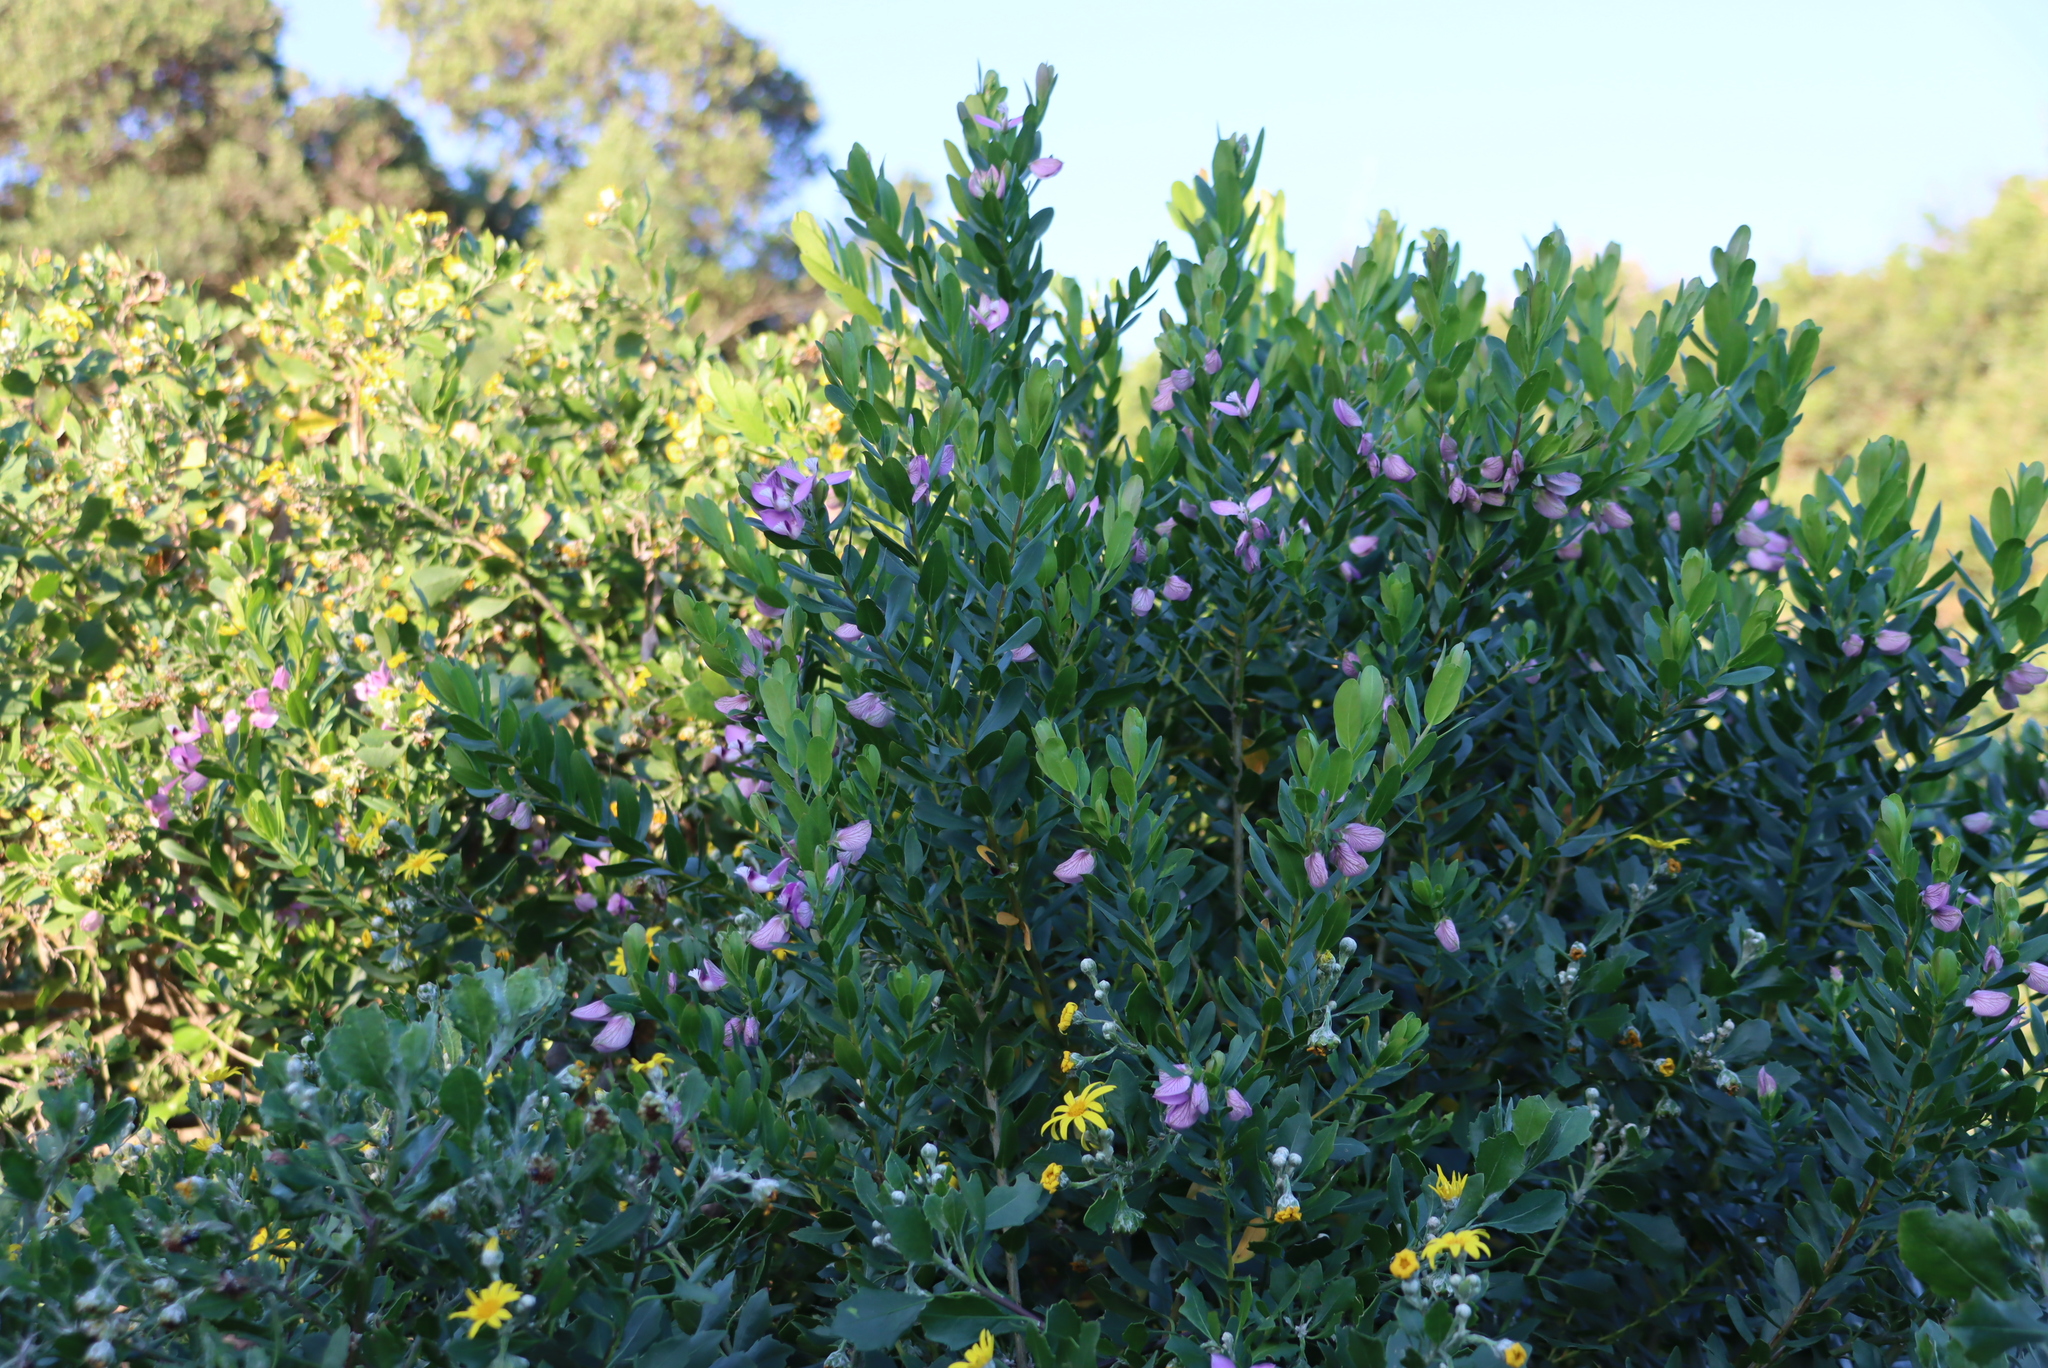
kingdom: Plantae
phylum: Tracheophyta
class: Magnoliopsida
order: Fabales
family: Polygalaceae
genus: Polygala
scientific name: Polygala myrtifolia
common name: Myrtle-leaf milkwort
